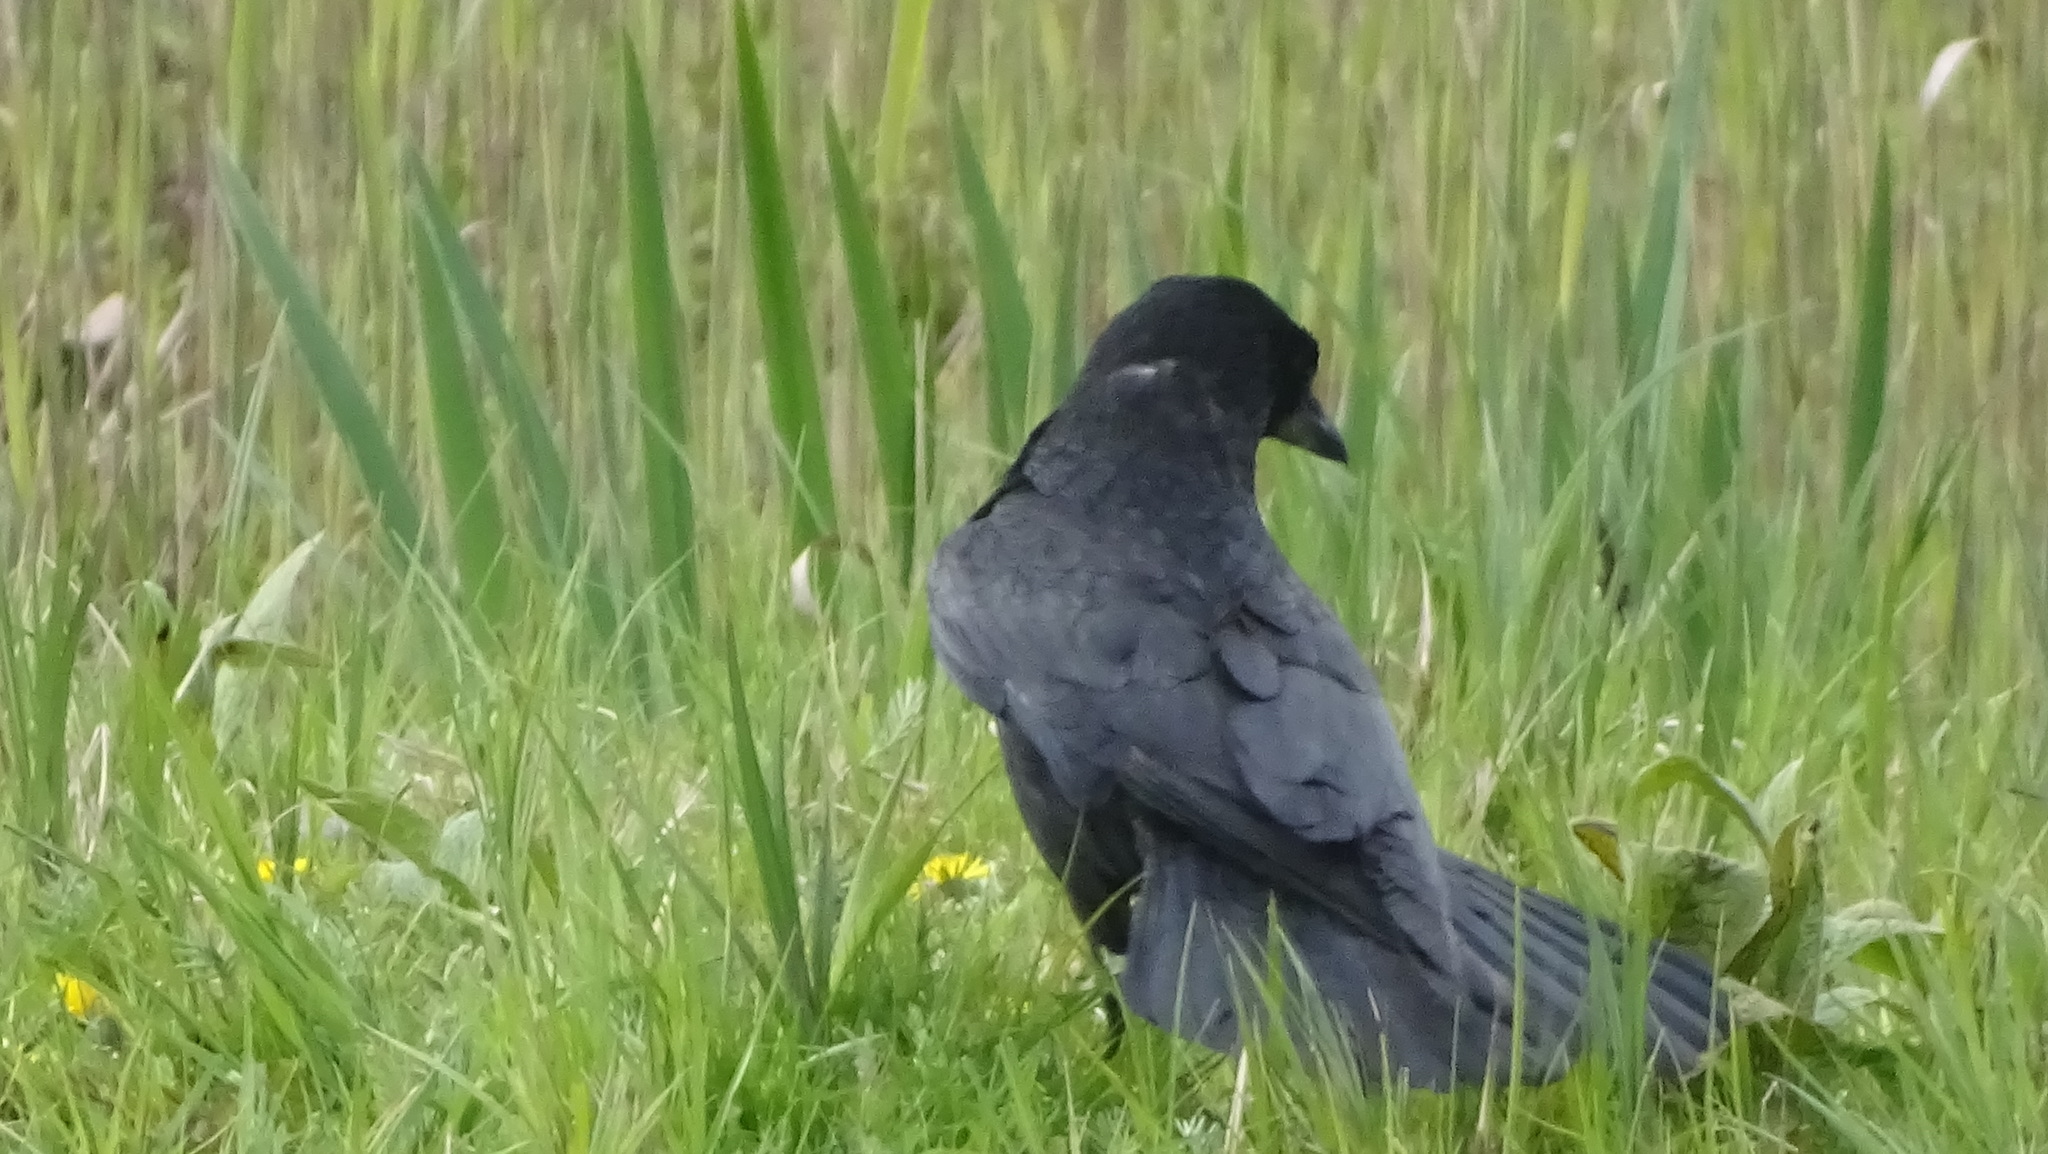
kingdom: Animalia
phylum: Chordata
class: Aves
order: Passeriformes
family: Corvidae
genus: Coloeus
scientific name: Coloeus monedula
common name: Western jackdaw
